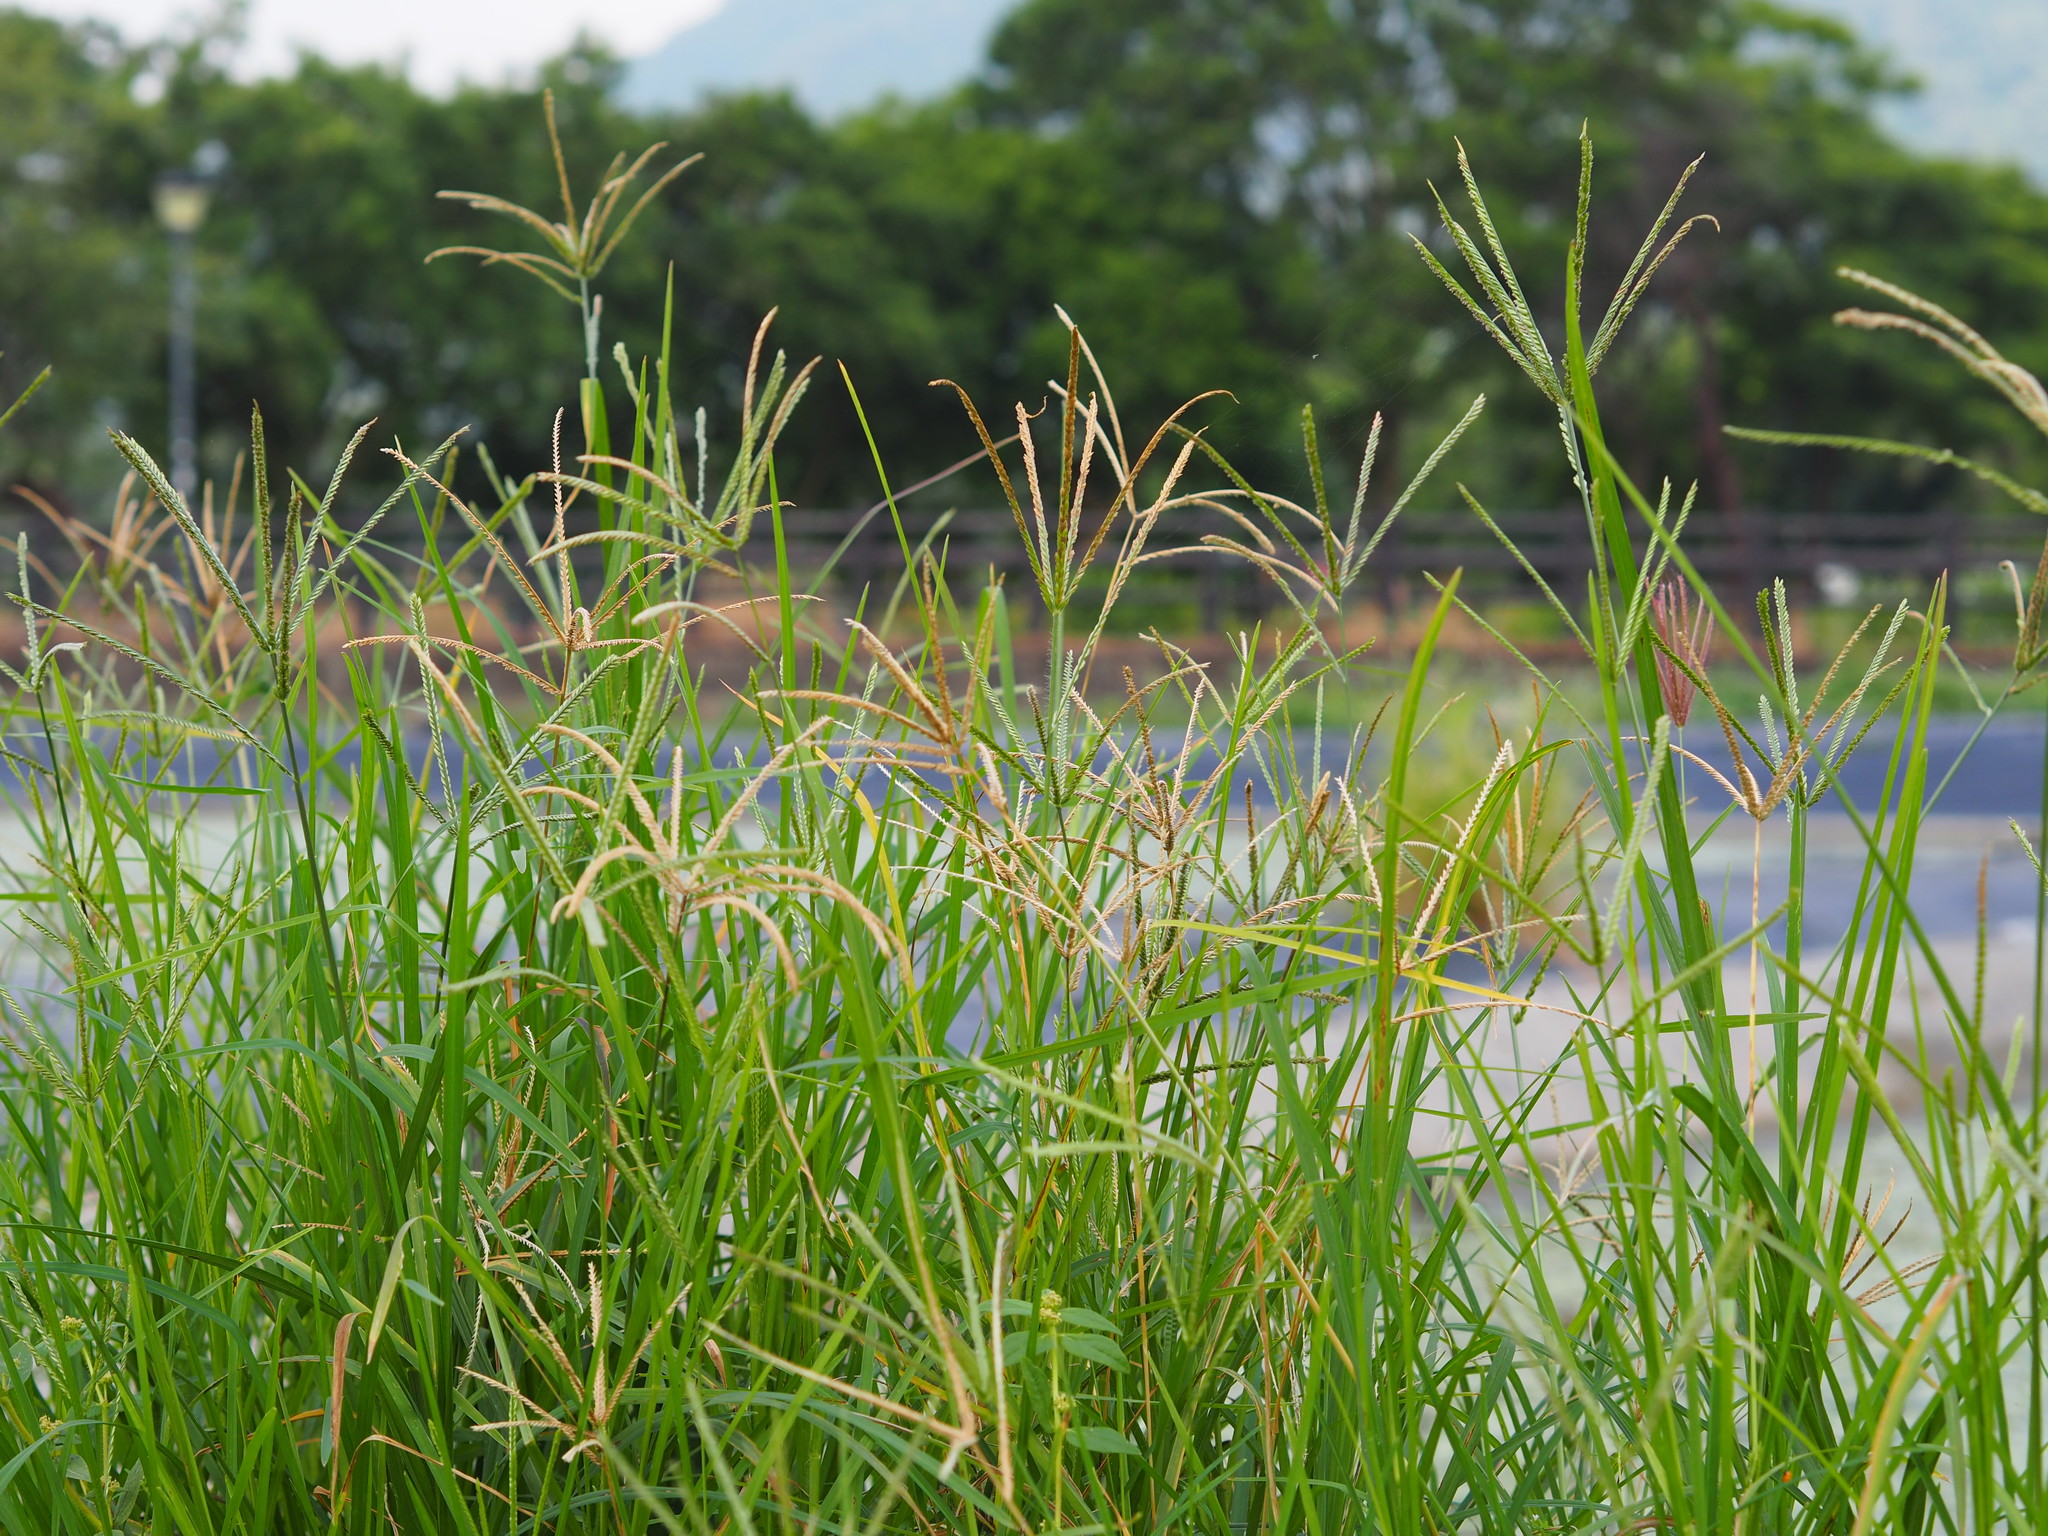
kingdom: Plantae
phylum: Tracheophyta
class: Liliopsida
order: Poales
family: Poaceae
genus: Eleusine
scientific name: Eleusine indica
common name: Yard-grass
